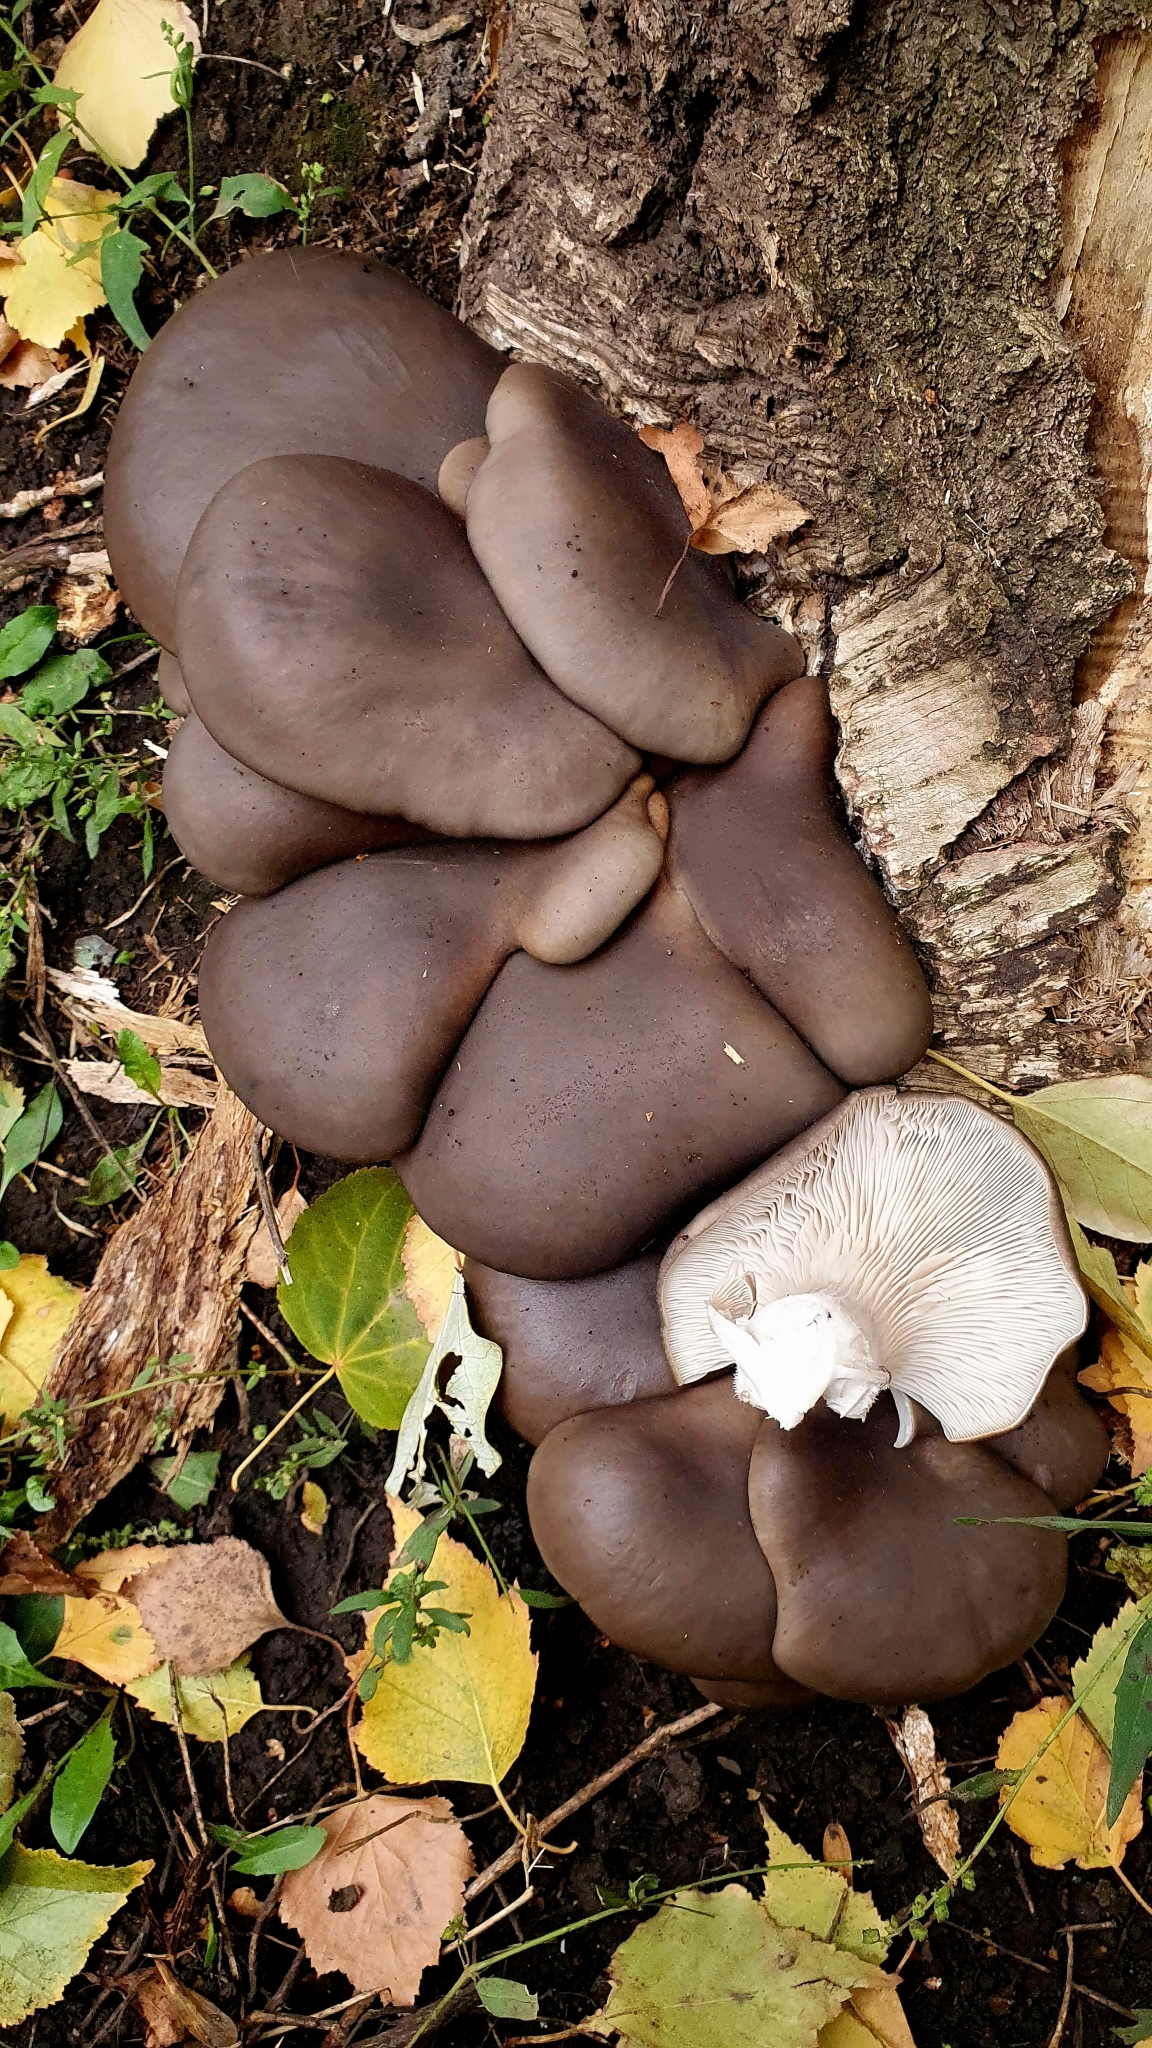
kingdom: Fungi
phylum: Basidiomycota
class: Agaricomycetes
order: Agaricales
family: Pleurotaceae
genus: Pleurotus
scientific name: Pleurotus ostreatus
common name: Oyster mushroom
